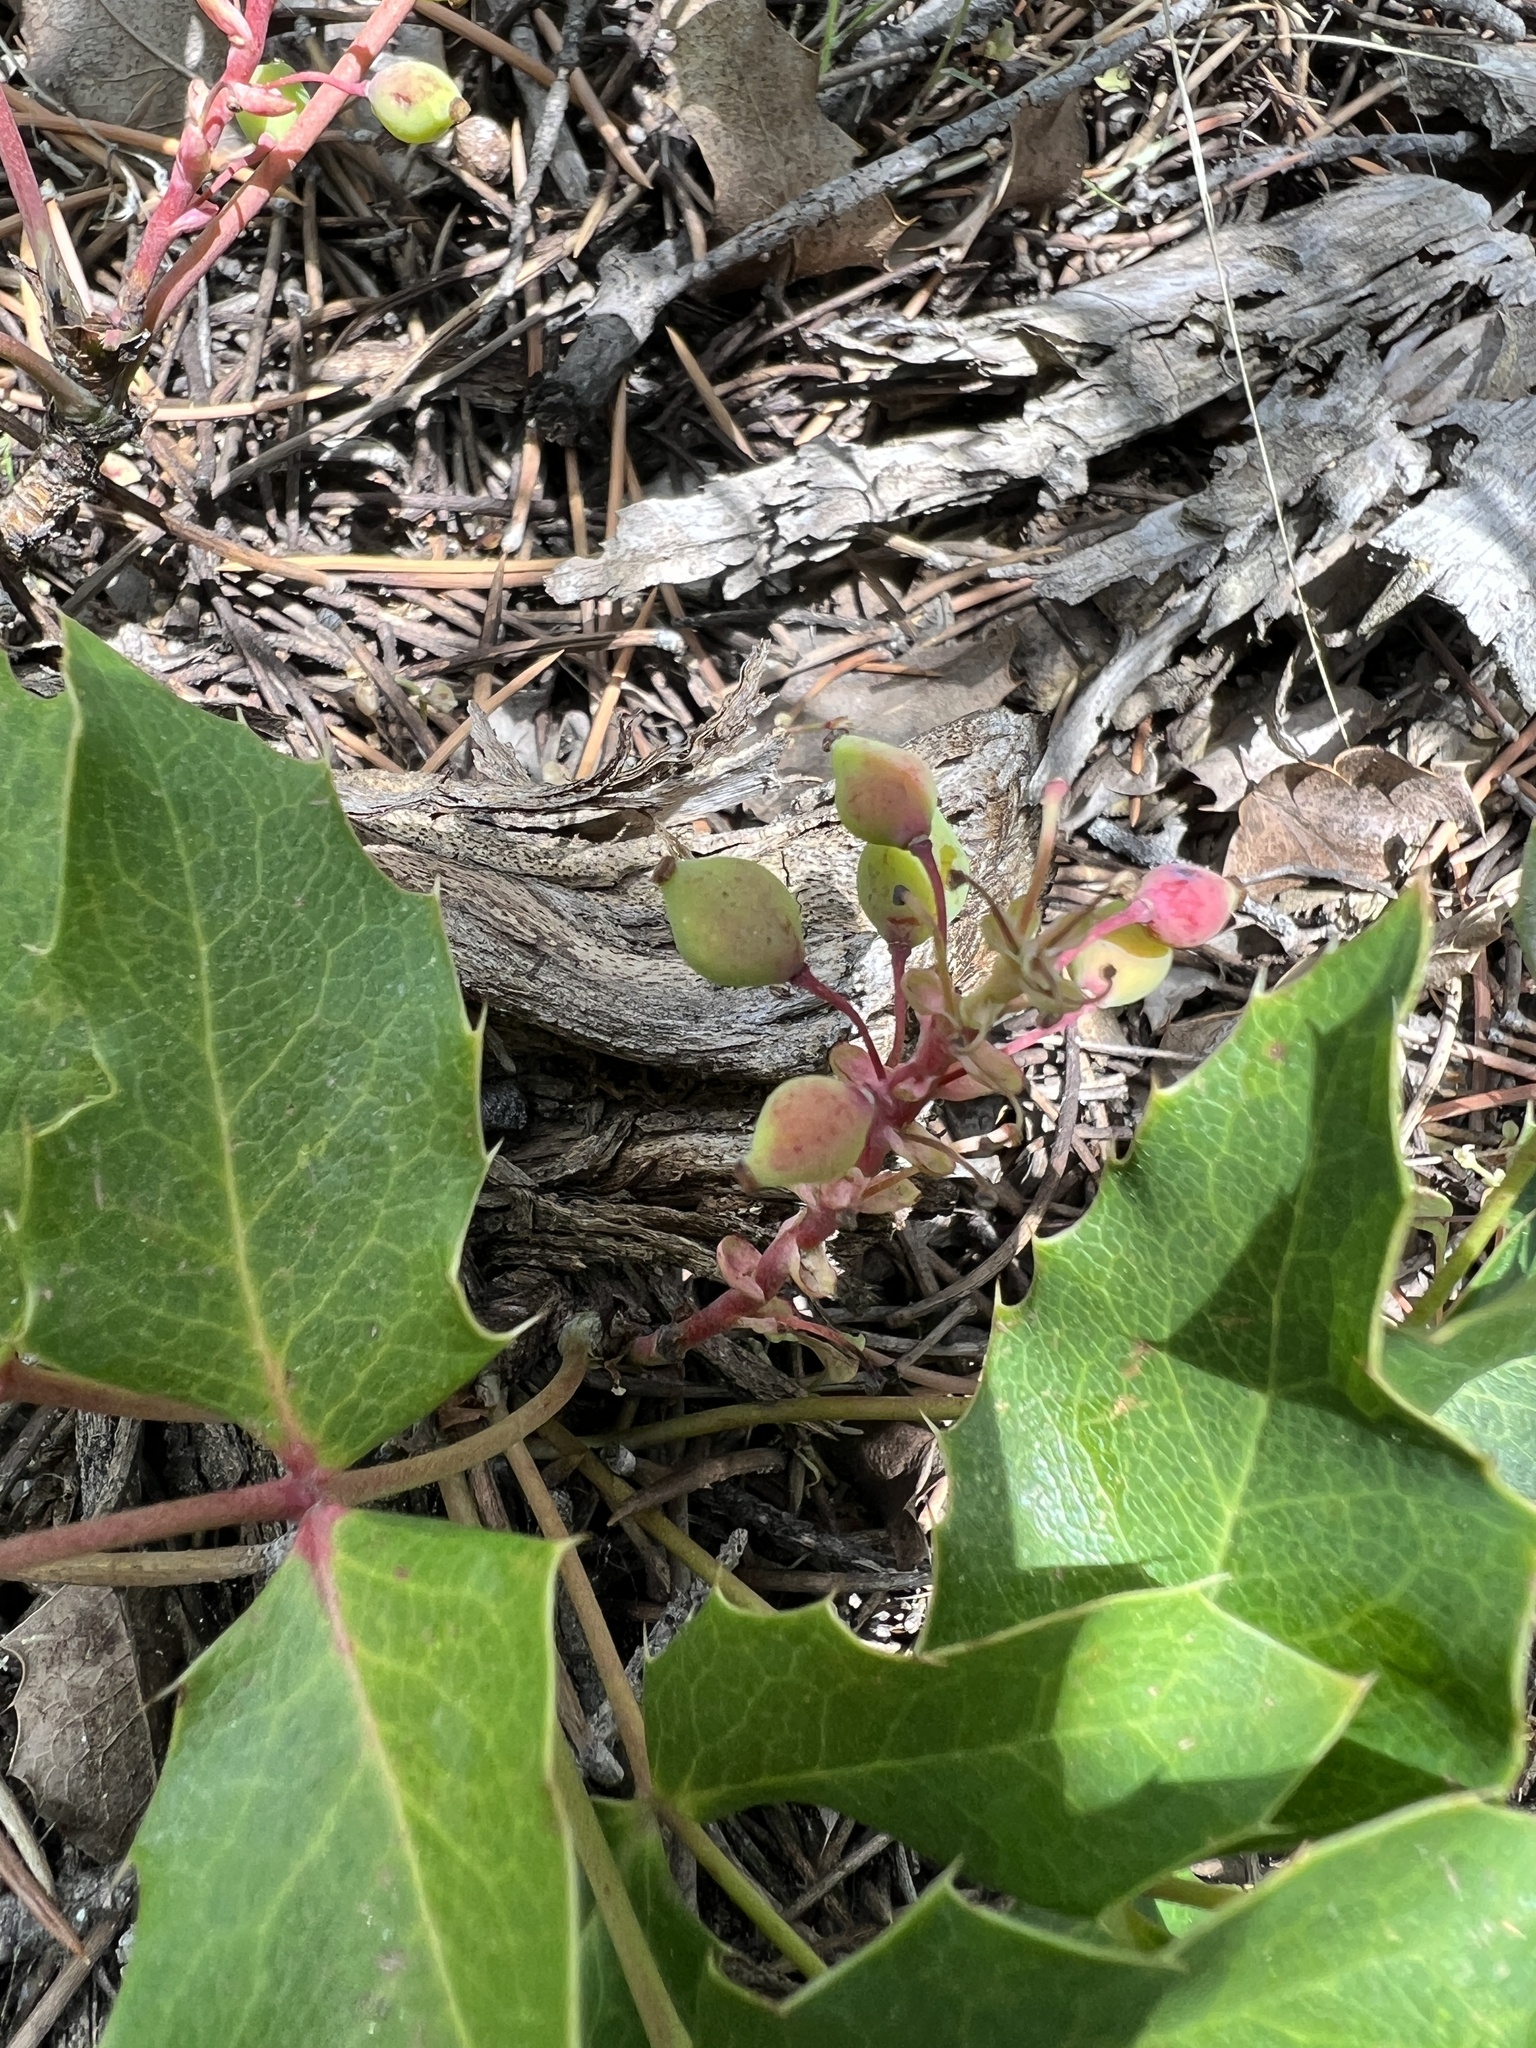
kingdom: Plantae
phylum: Tracheophyta
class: Magnoliopsida
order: Ranunculales
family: Berberidaceae
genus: Mahonia
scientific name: Mahonia repens
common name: Creeping oregon-grape
